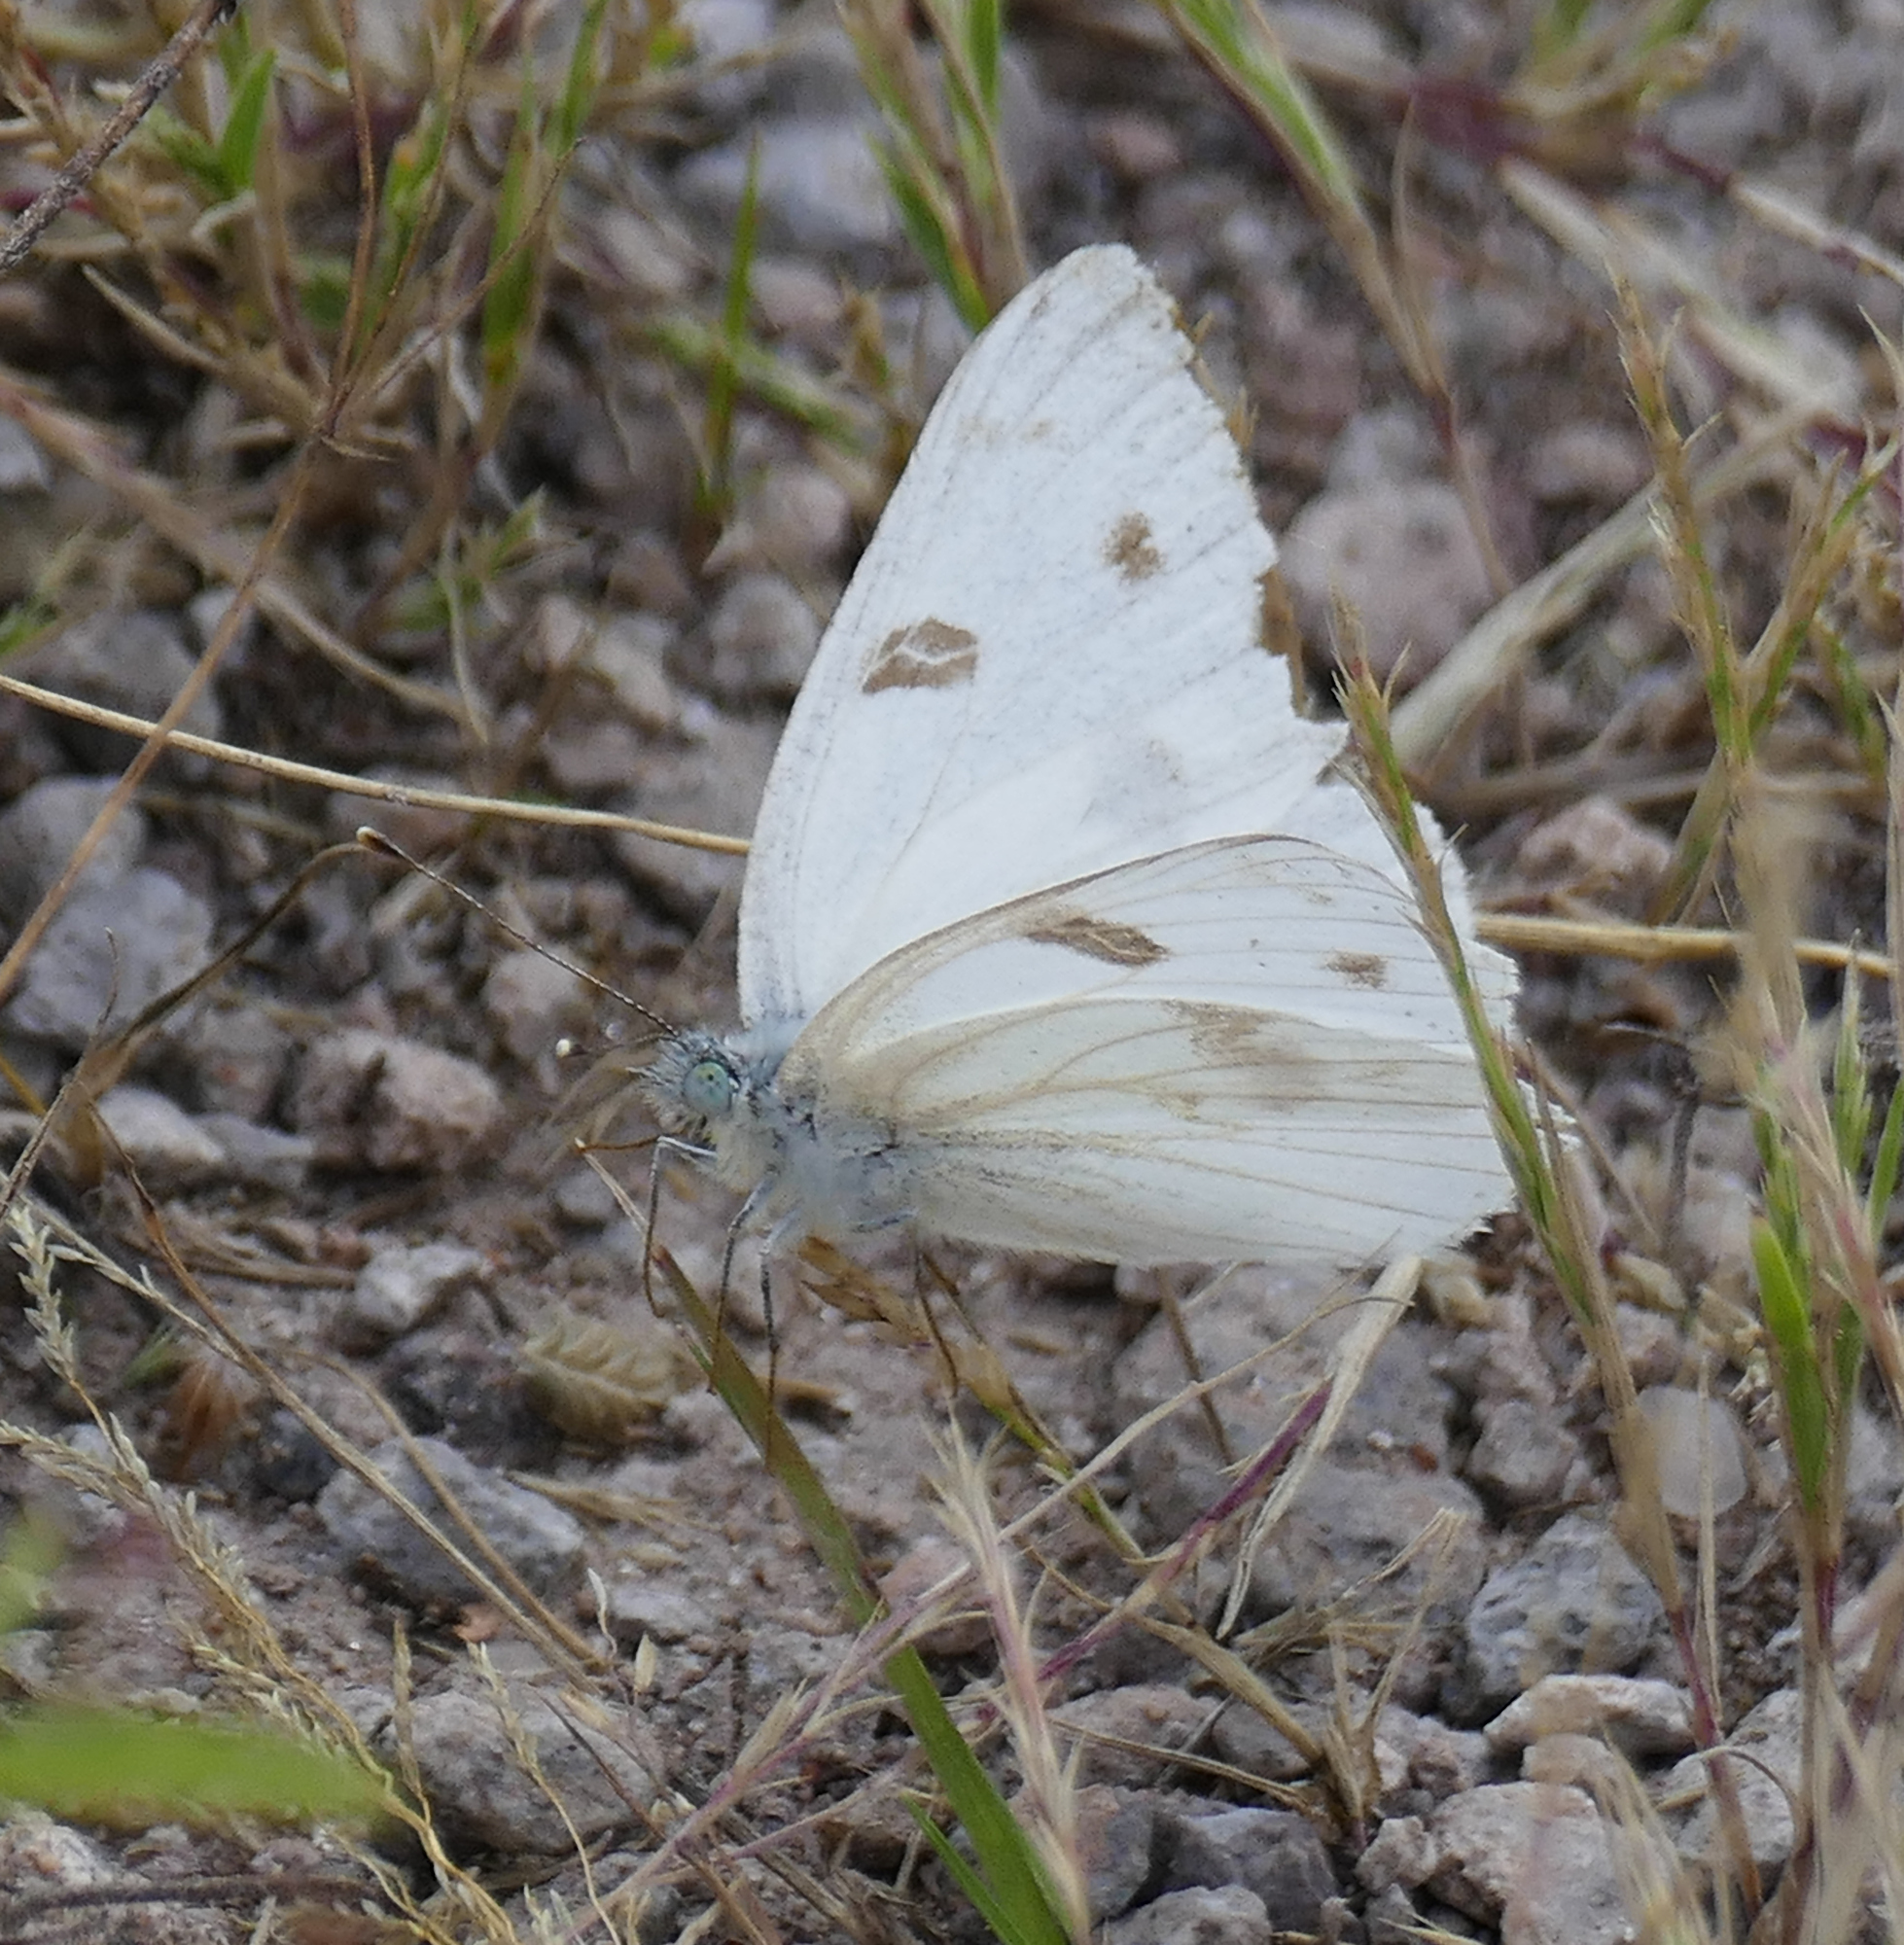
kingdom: Animalia
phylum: Arthropoda
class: Insecta
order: Lepidoptera
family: Pieridae
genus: Pontia
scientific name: Pontia protodice
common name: Checkered white
